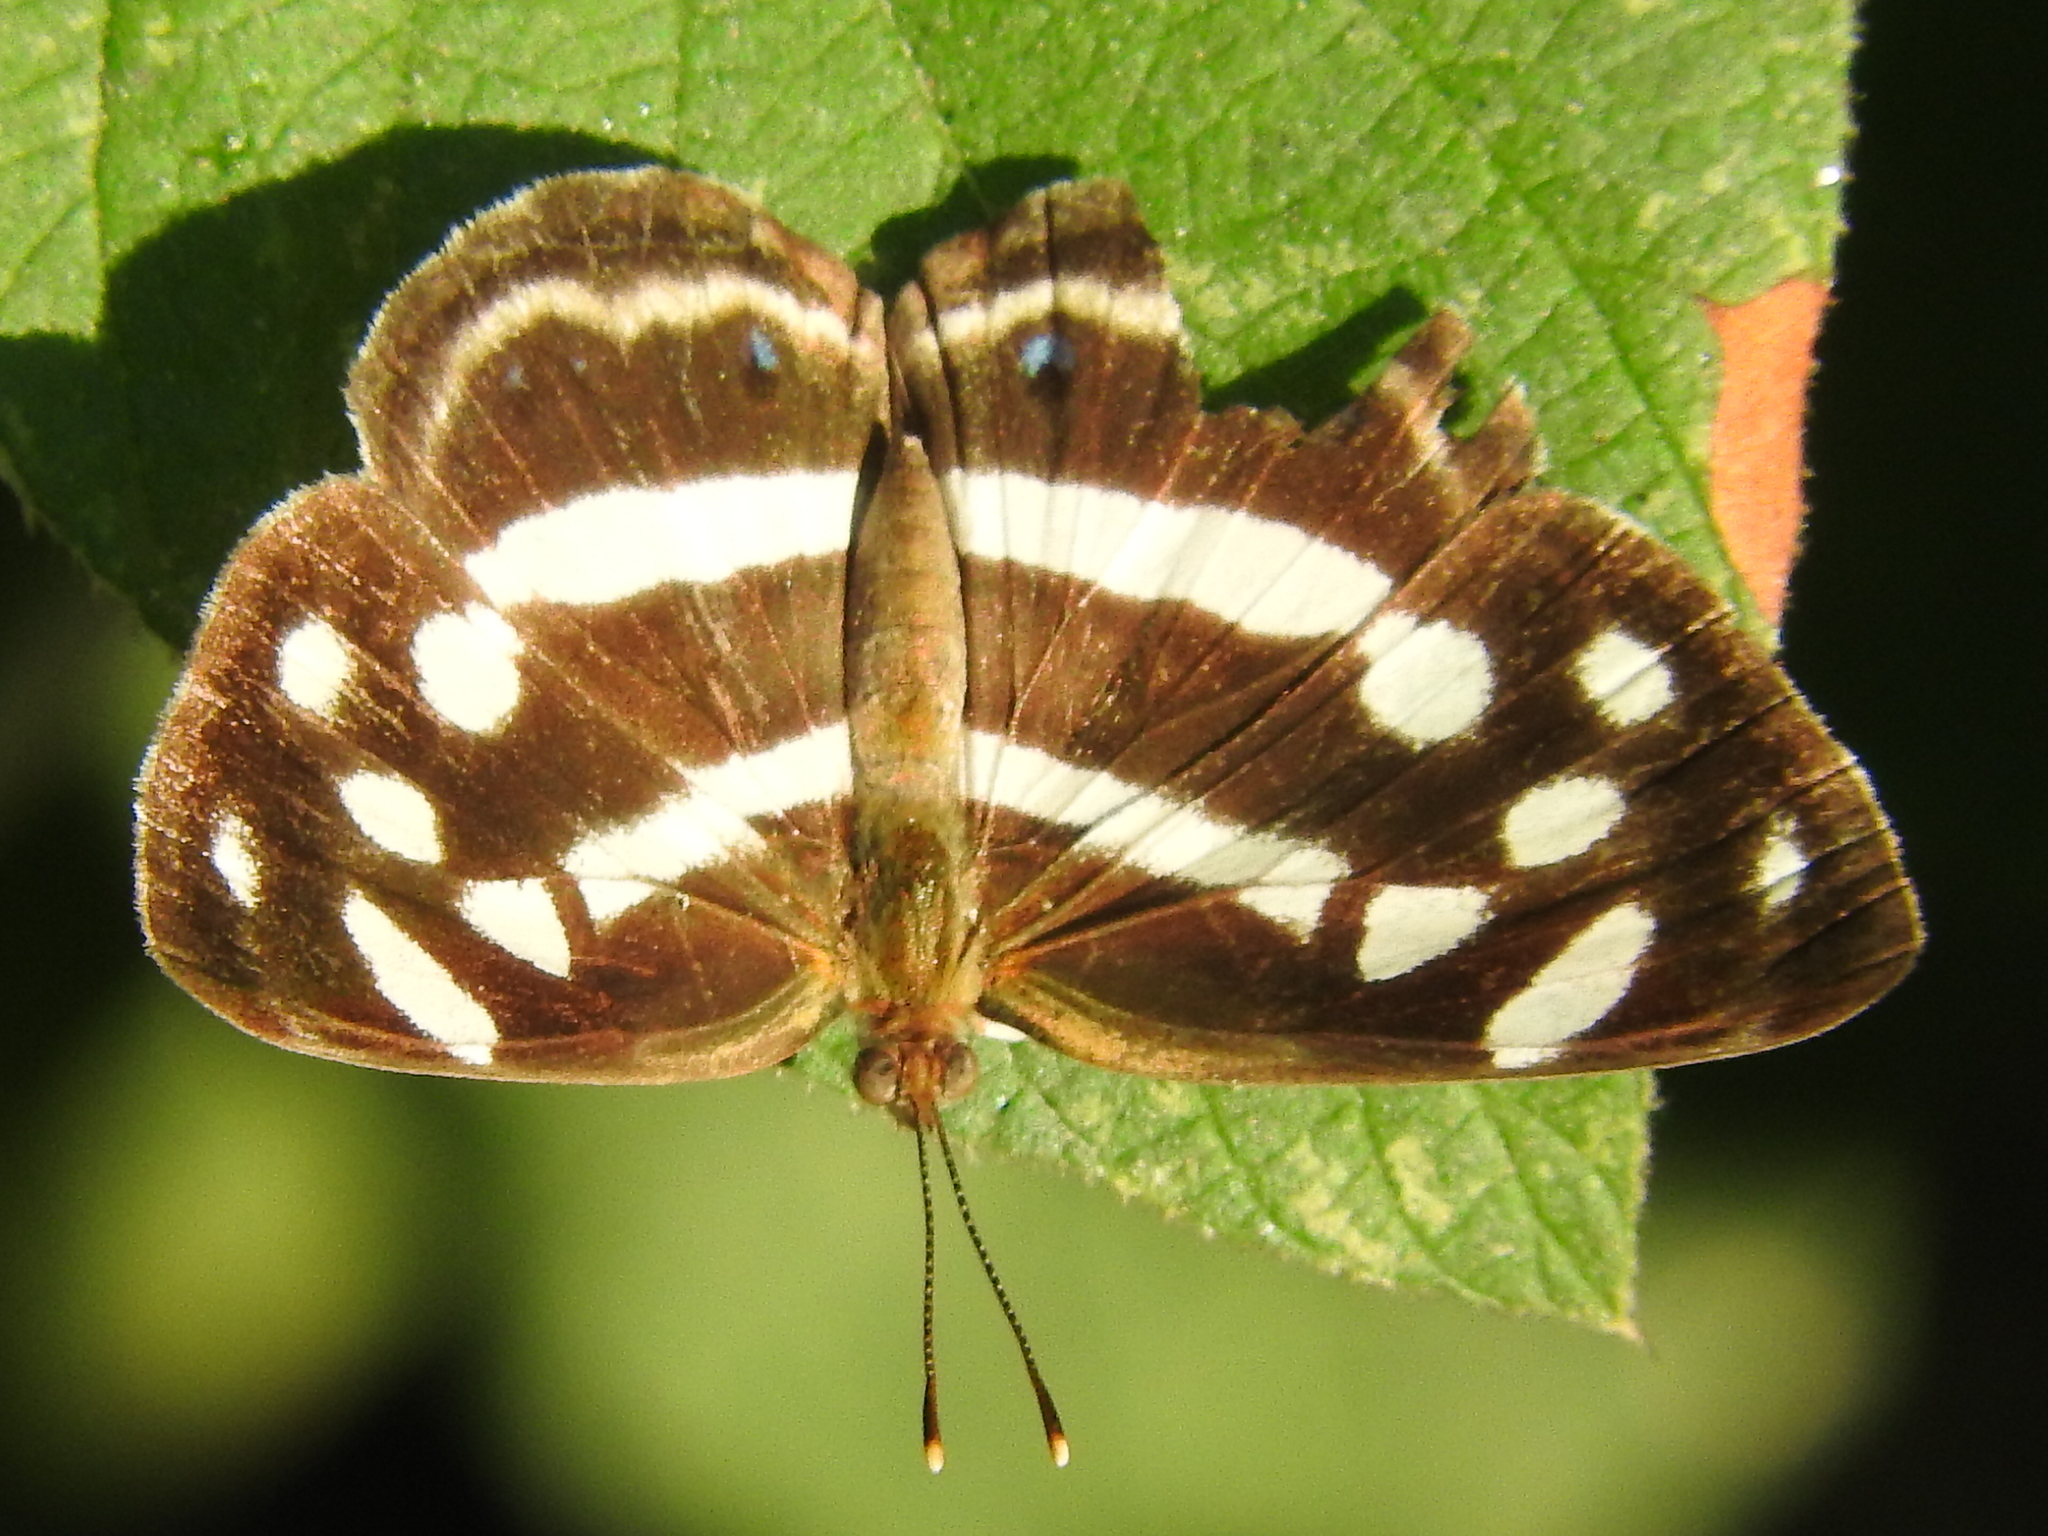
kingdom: Animalia
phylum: Arthropoda
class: Insecta
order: Lepidoptera
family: Nymphalidae
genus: Dynamine
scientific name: Dynamine mylitta
